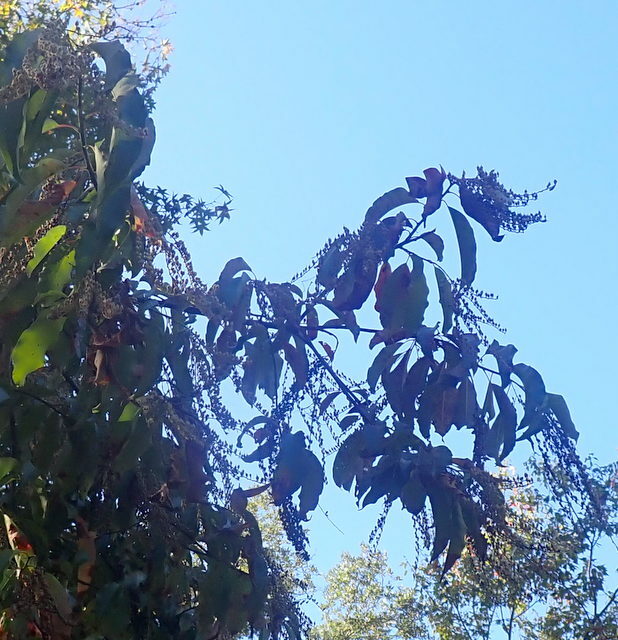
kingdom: Plantae
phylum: Tracheophyta
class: Magnoliopsida
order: Ericales
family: Ericaceae
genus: Oxydendrum
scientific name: Oxydendrum arboreum
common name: Sourwood
